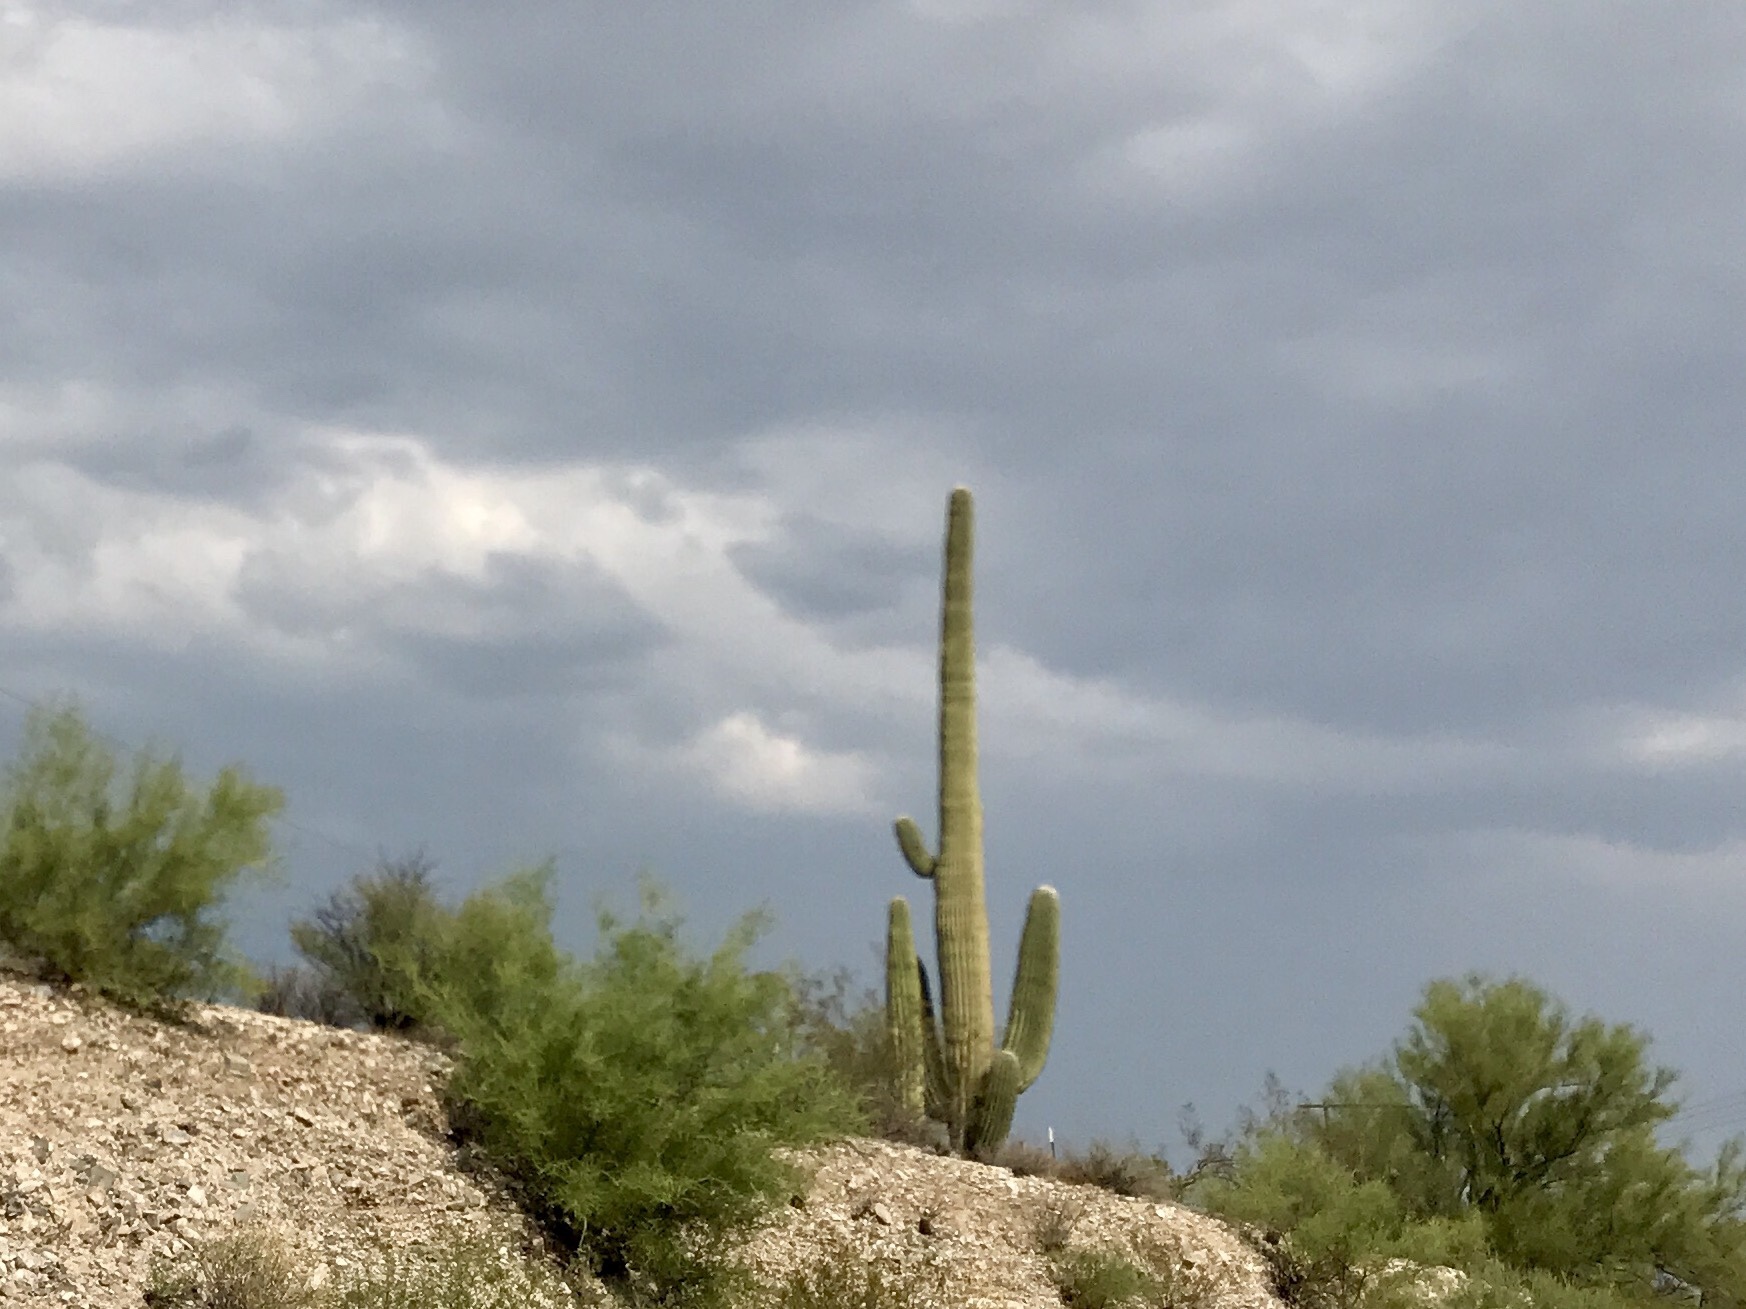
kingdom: Plantae
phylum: Tracheophyta
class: Magnoliopsida
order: Caryophyllales
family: Cactaceae
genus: Carnegiea
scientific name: Carnegiea gigantea
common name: Saguaro
